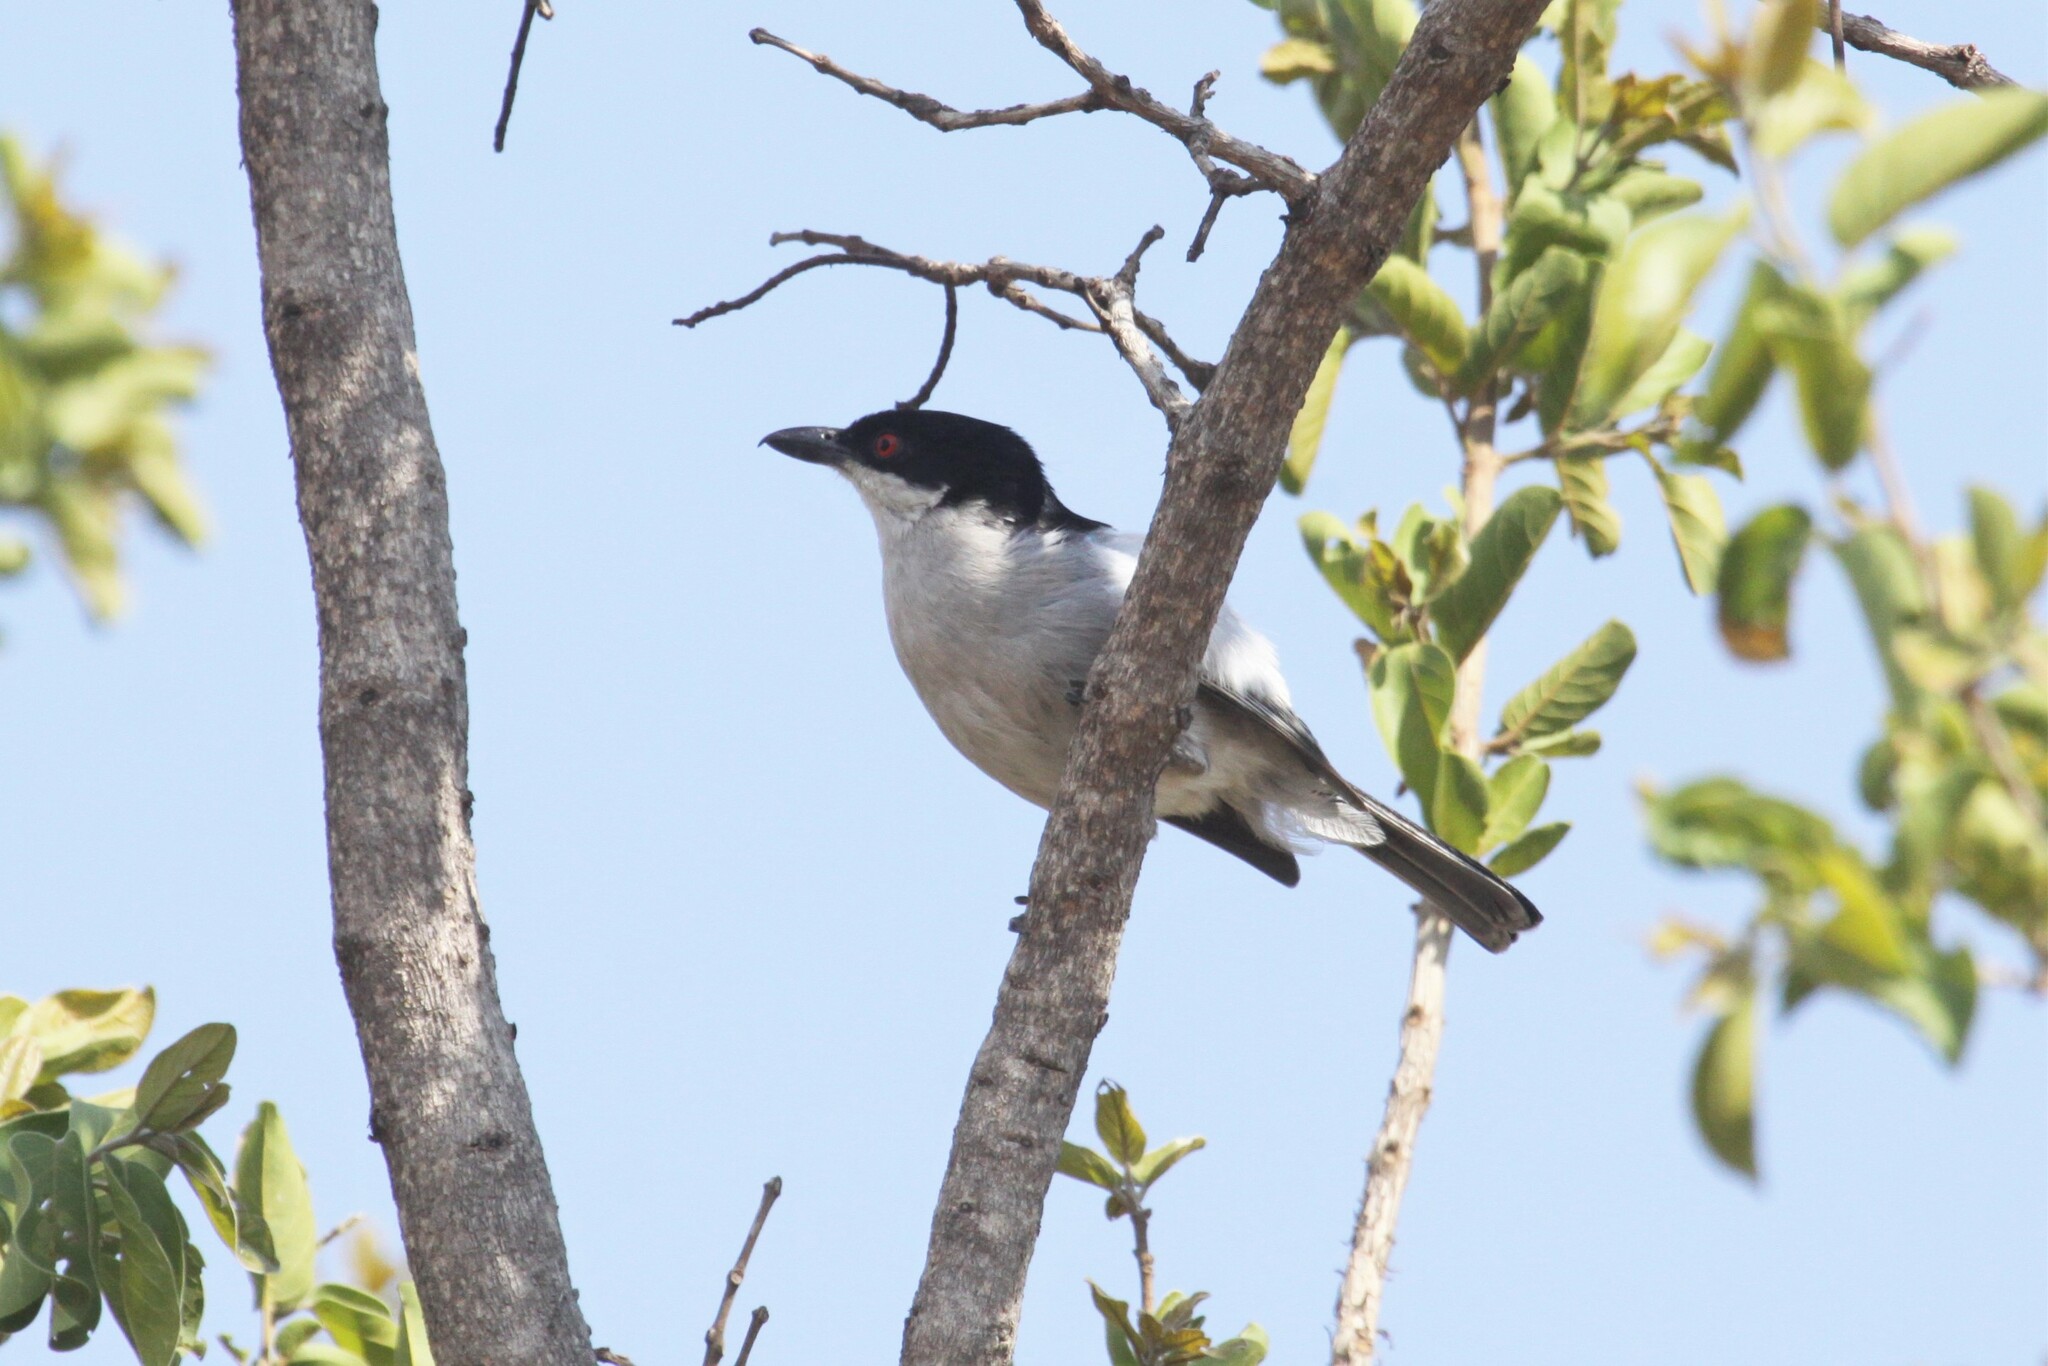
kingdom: Animalia
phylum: Chordata
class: Aves
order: Passeriformes
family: Malaconotidae
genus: Dryoscopus
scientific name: Dryoscopus cubla
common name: Black-backed puffback
